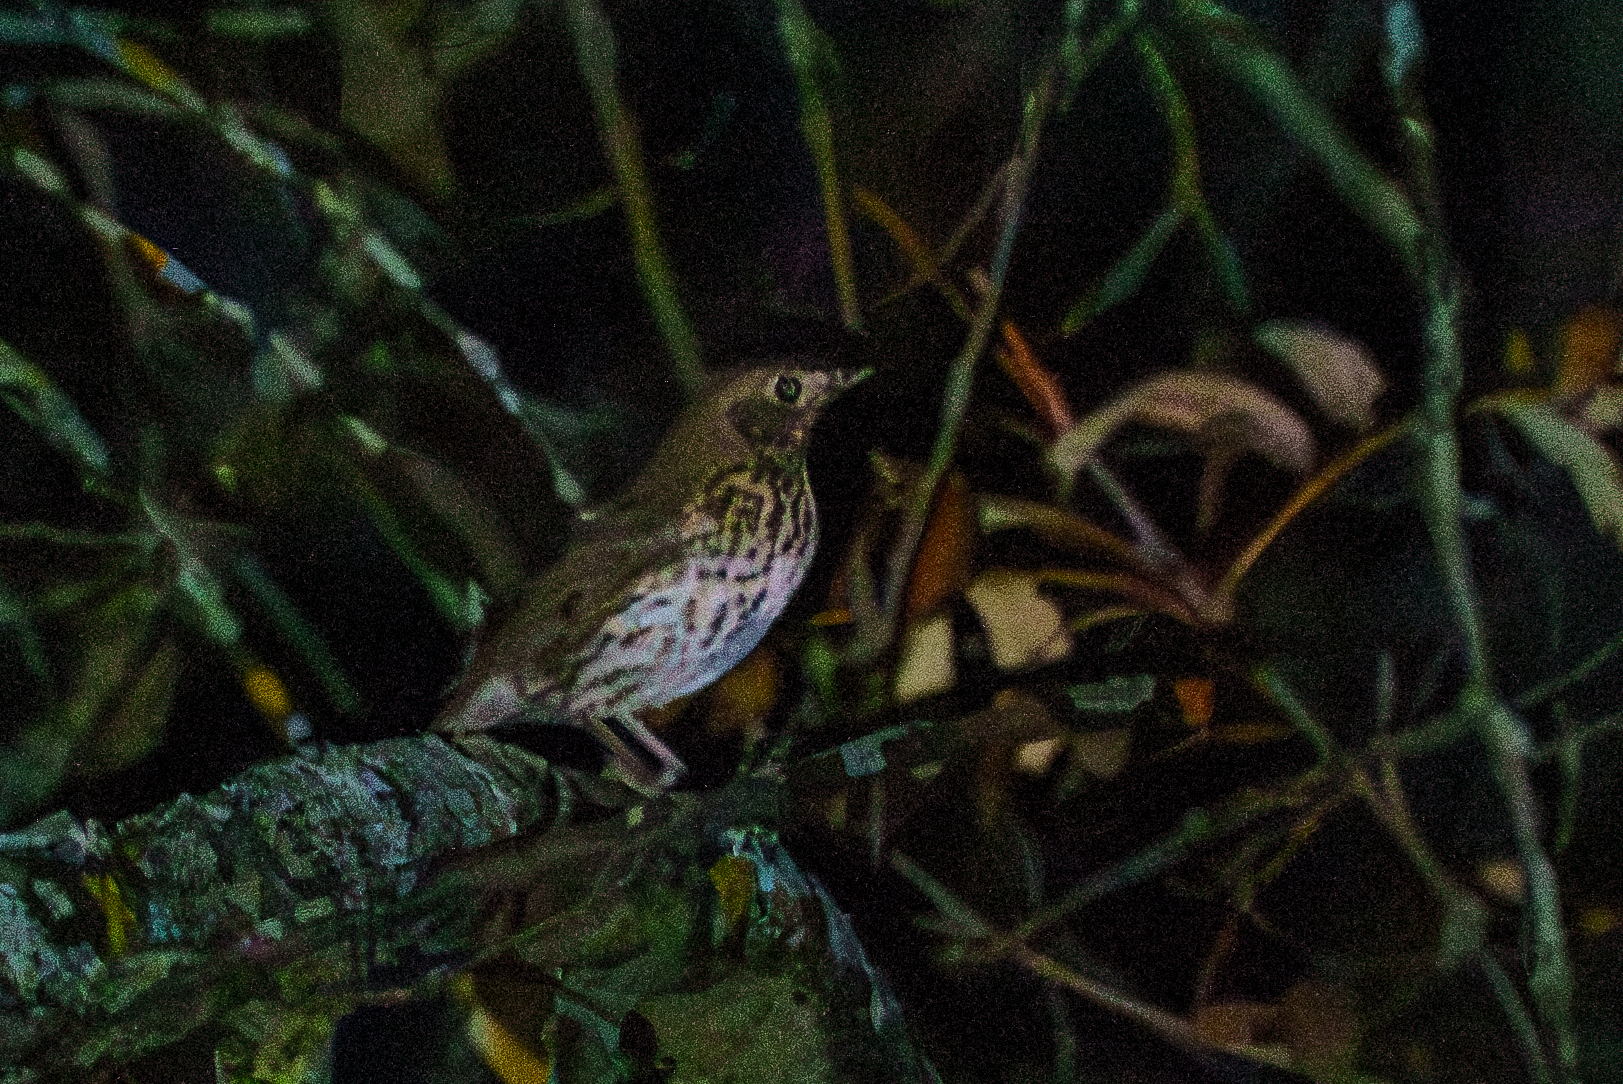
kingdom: Animalia
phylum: Chordata
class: Aves
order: Passeriformes
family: Turdidae
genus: Turdus
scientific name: Turdus philomelos
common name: Song thrush
